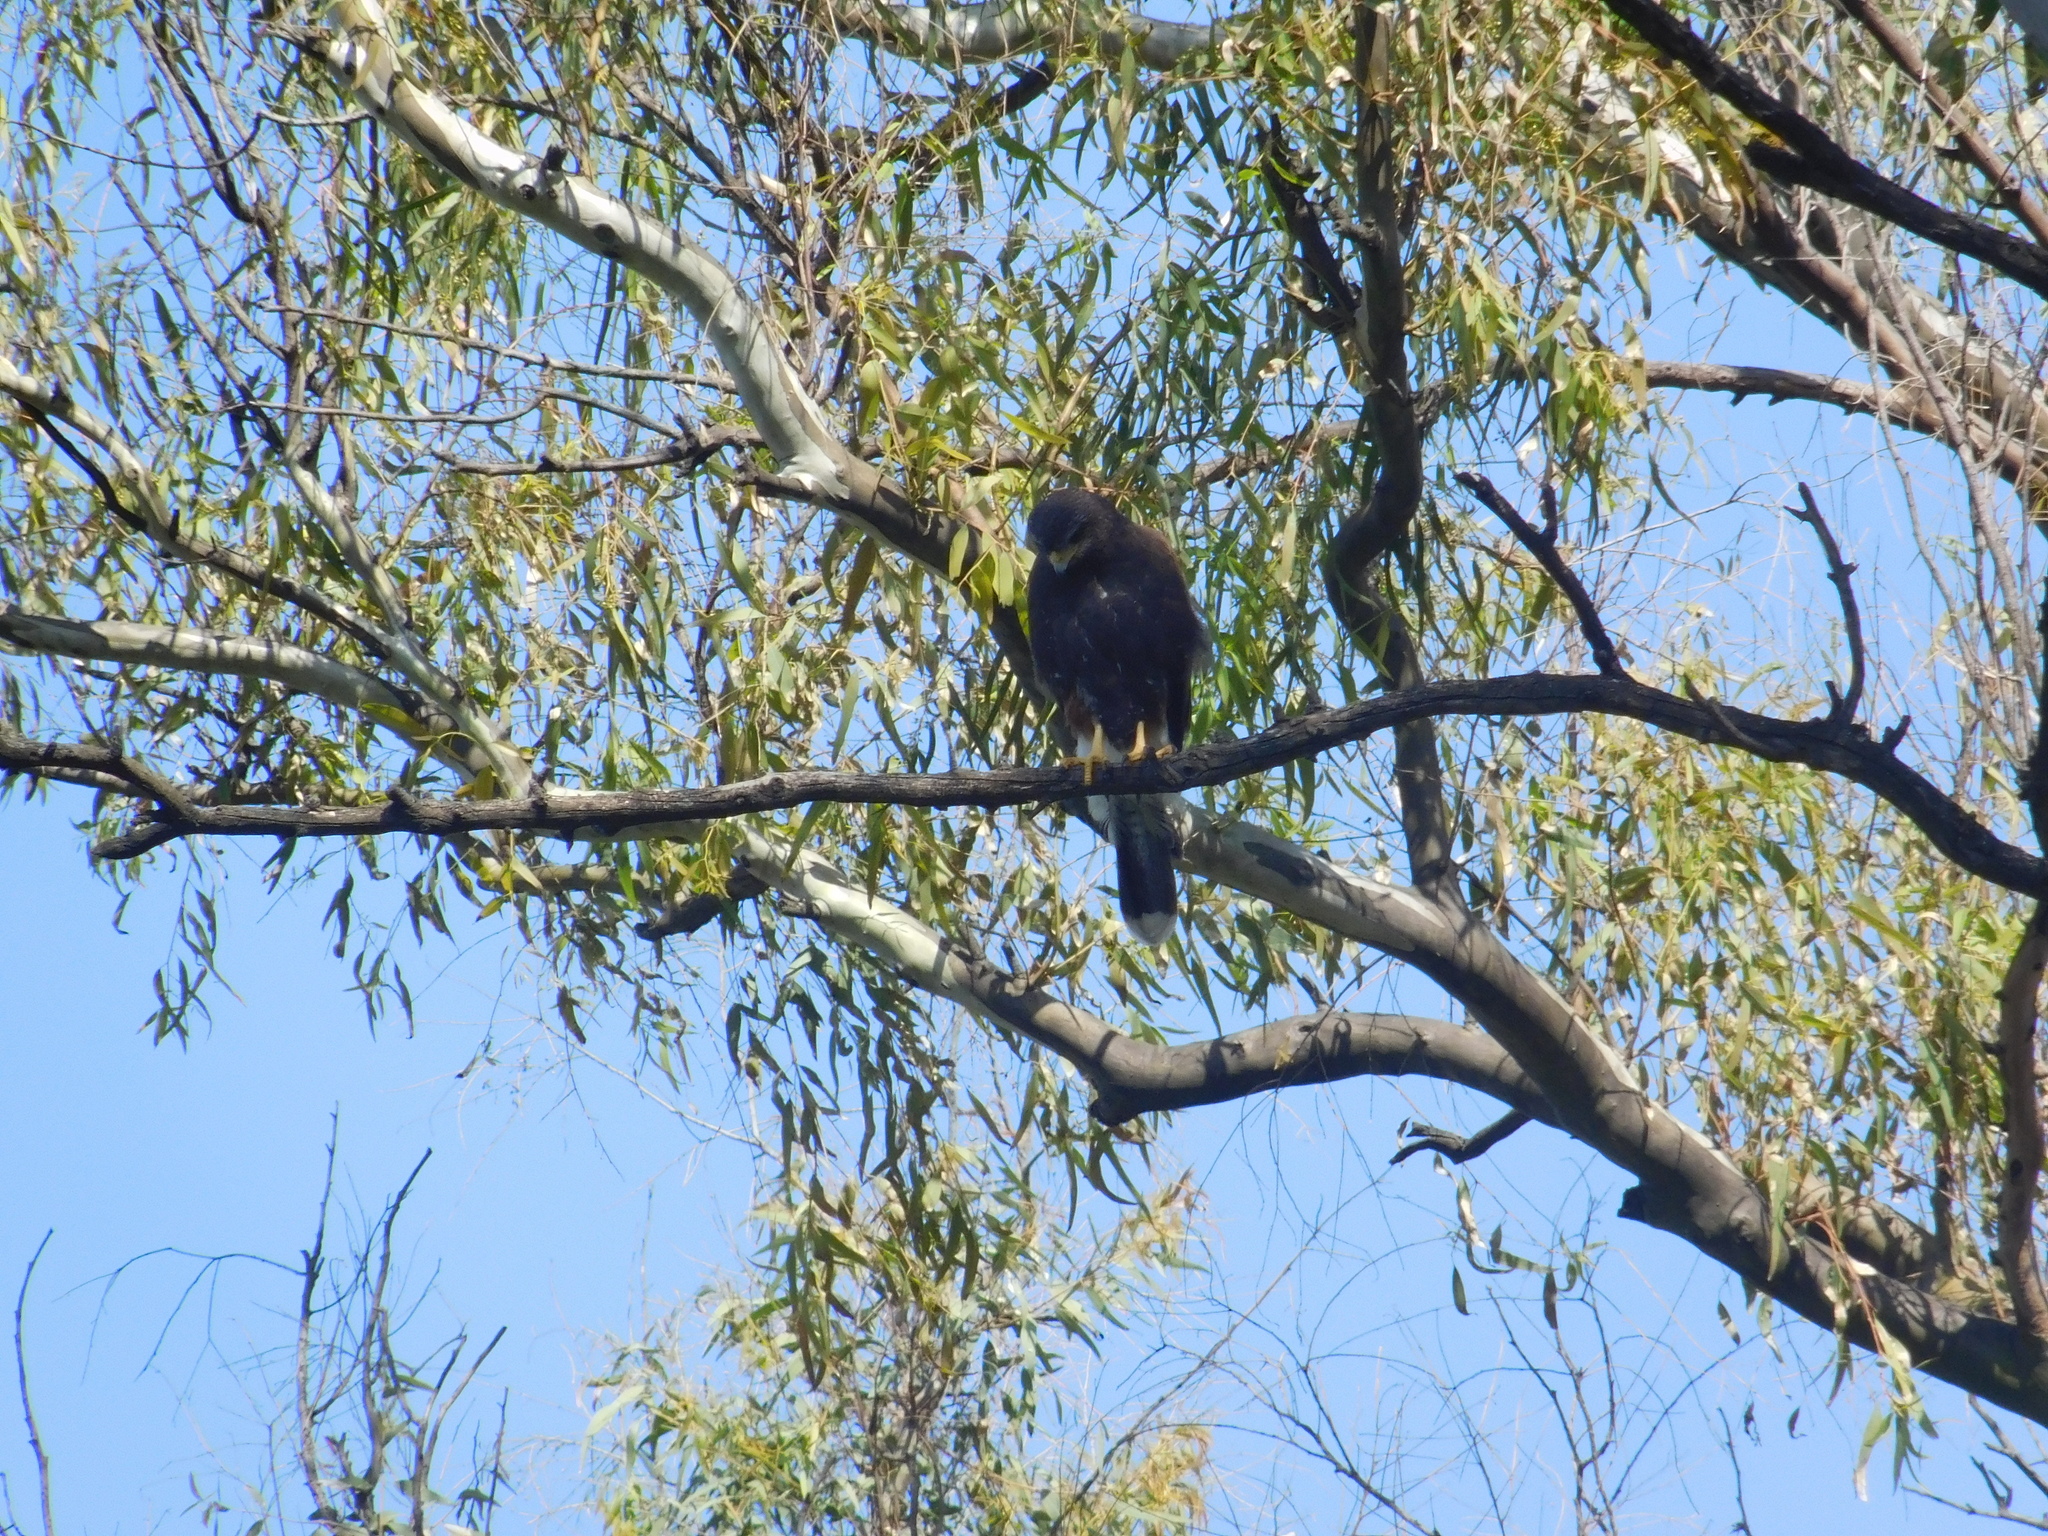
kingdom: Animalia
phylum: Chordata
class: Aves
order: Accipitriformes
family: Accipitridae
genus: Parabuteo
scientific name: Parabuteo unicinctus
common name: Harris's hawk
